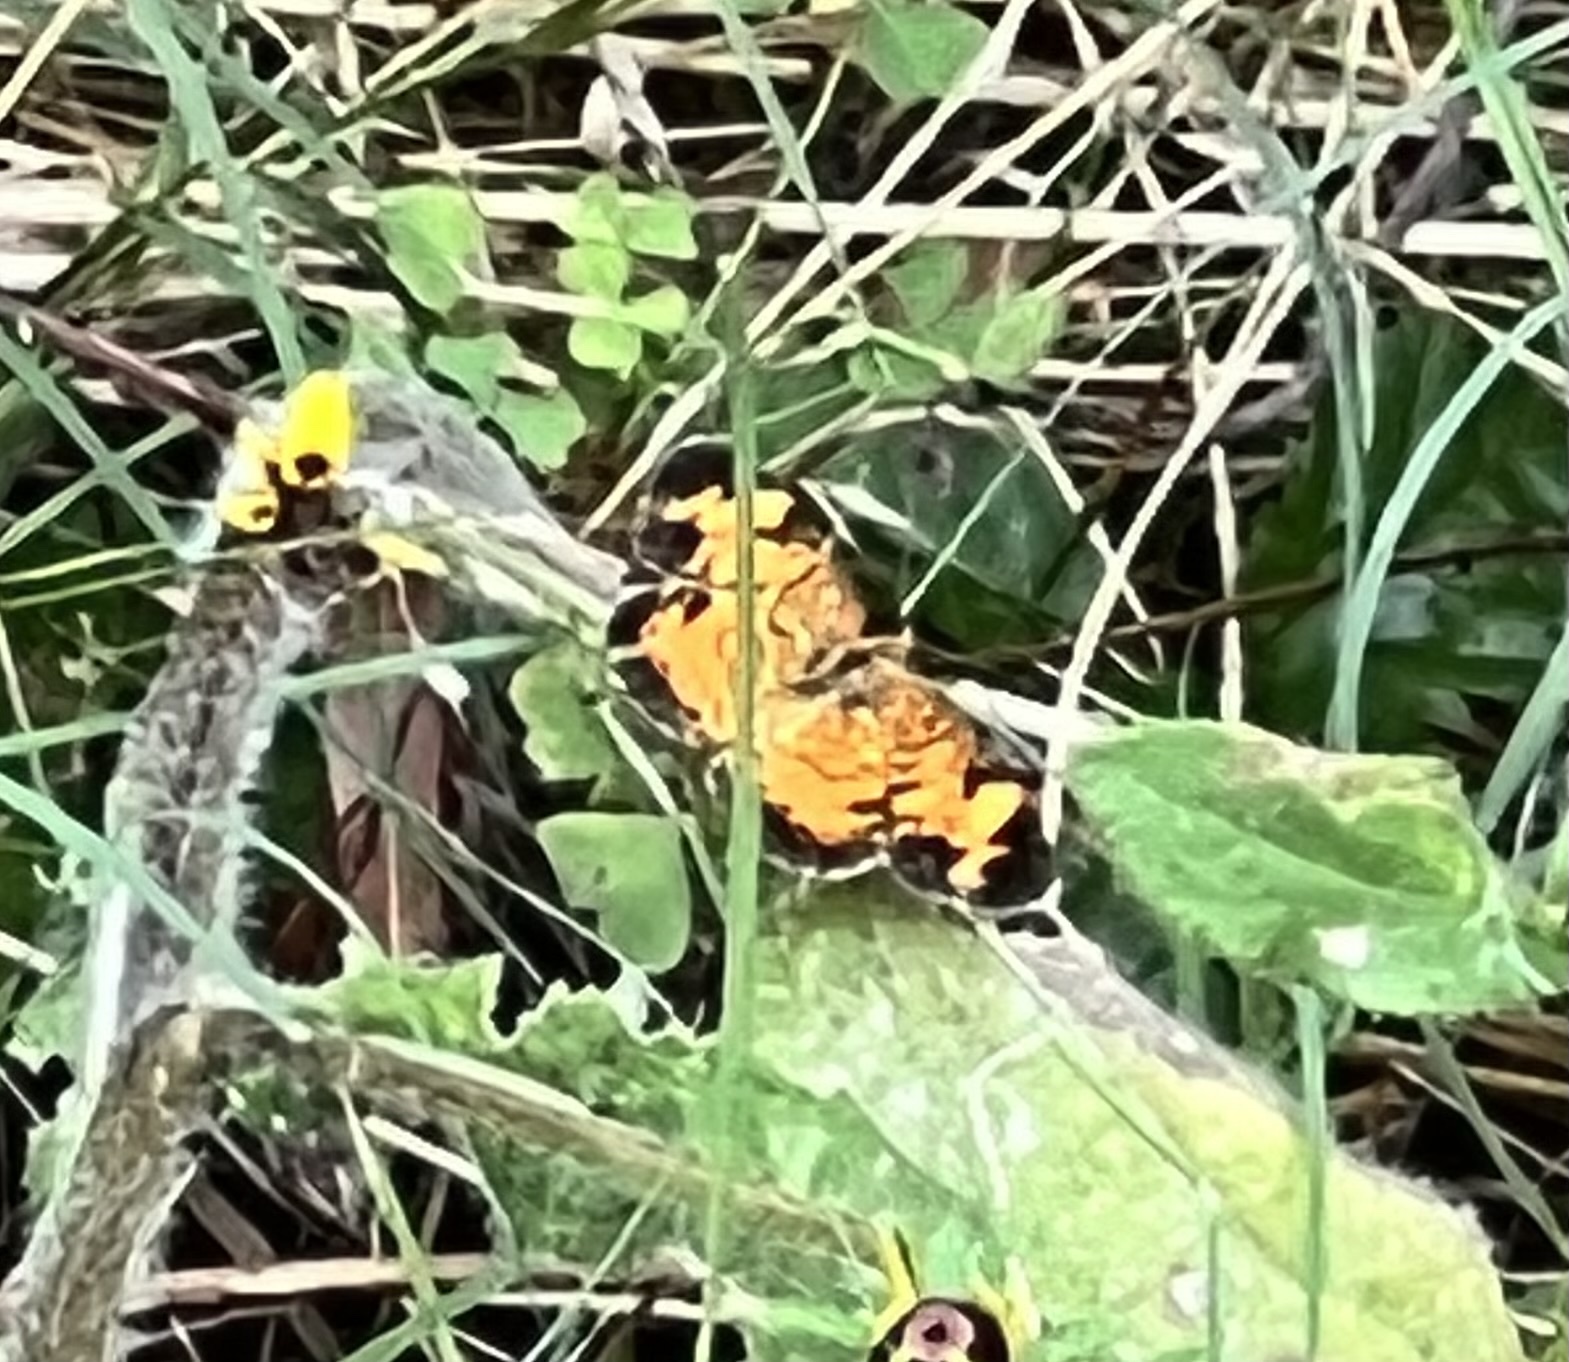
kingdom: Animalia
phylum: Arthropoda
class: Insecta
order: Lepidoptera
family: Nymphalidae
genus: Phyciodes
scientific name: Phyciodes tharos
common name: Pearl crescent
